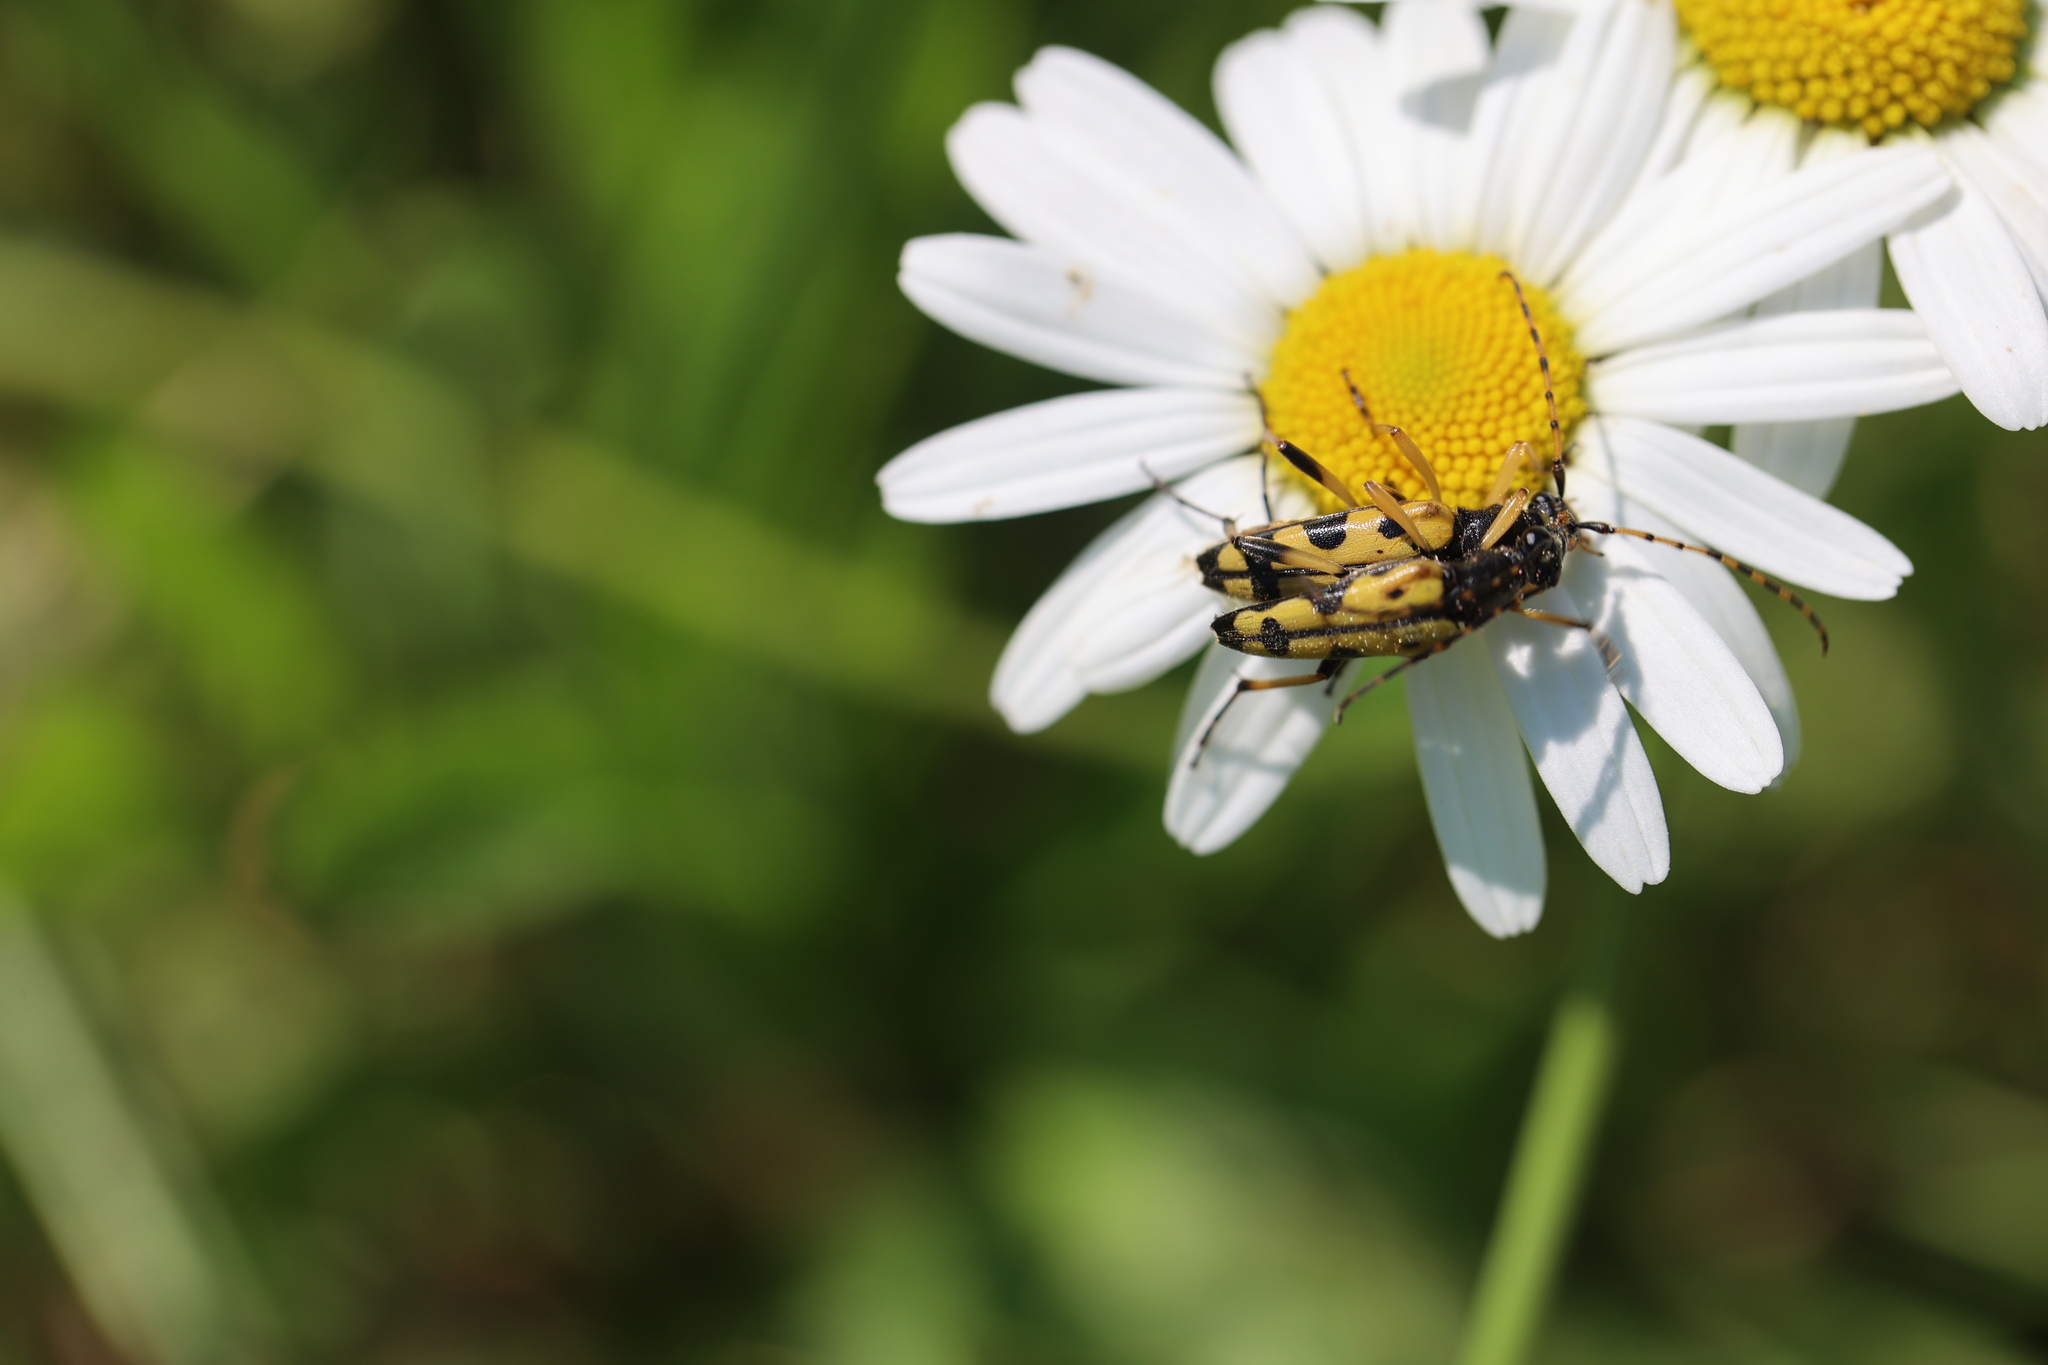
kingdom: Animalia
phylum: Arthropoda
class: Insecta
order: Coleoptera
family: Cerambycidae
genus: Rutpela
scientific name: Rutpela maculata
